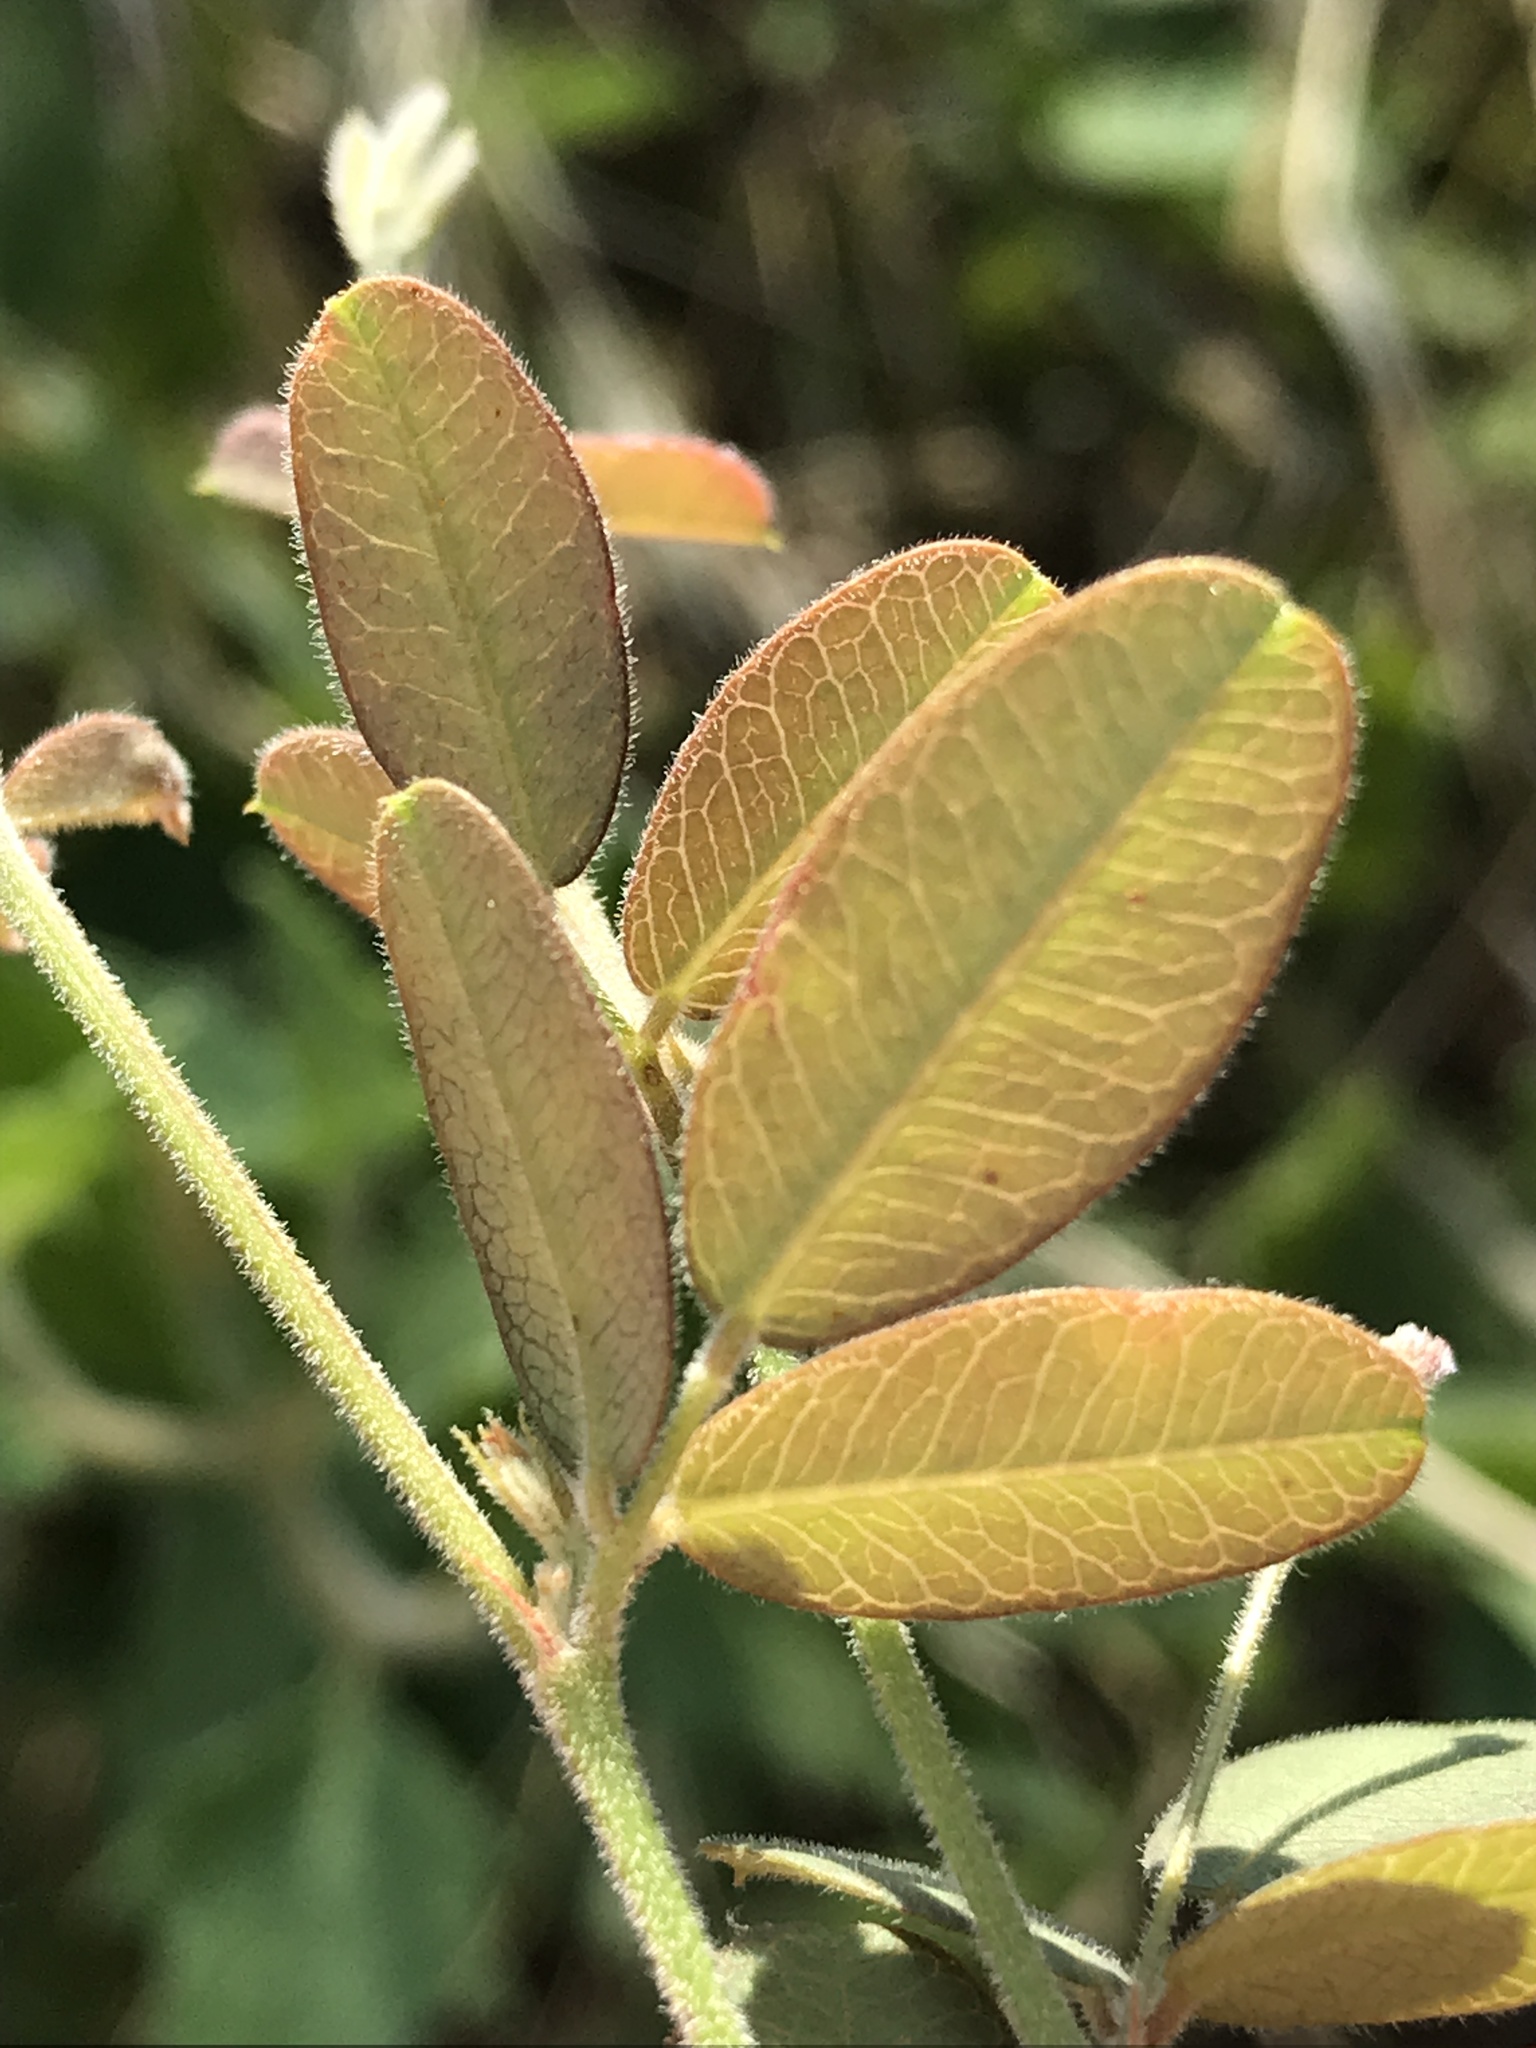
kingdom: Plantae
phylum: Tracheophyta
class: Magnoliopsida
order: Fabales
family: Fabaceae
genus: Lespedeza
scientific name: Lespedeza texana
